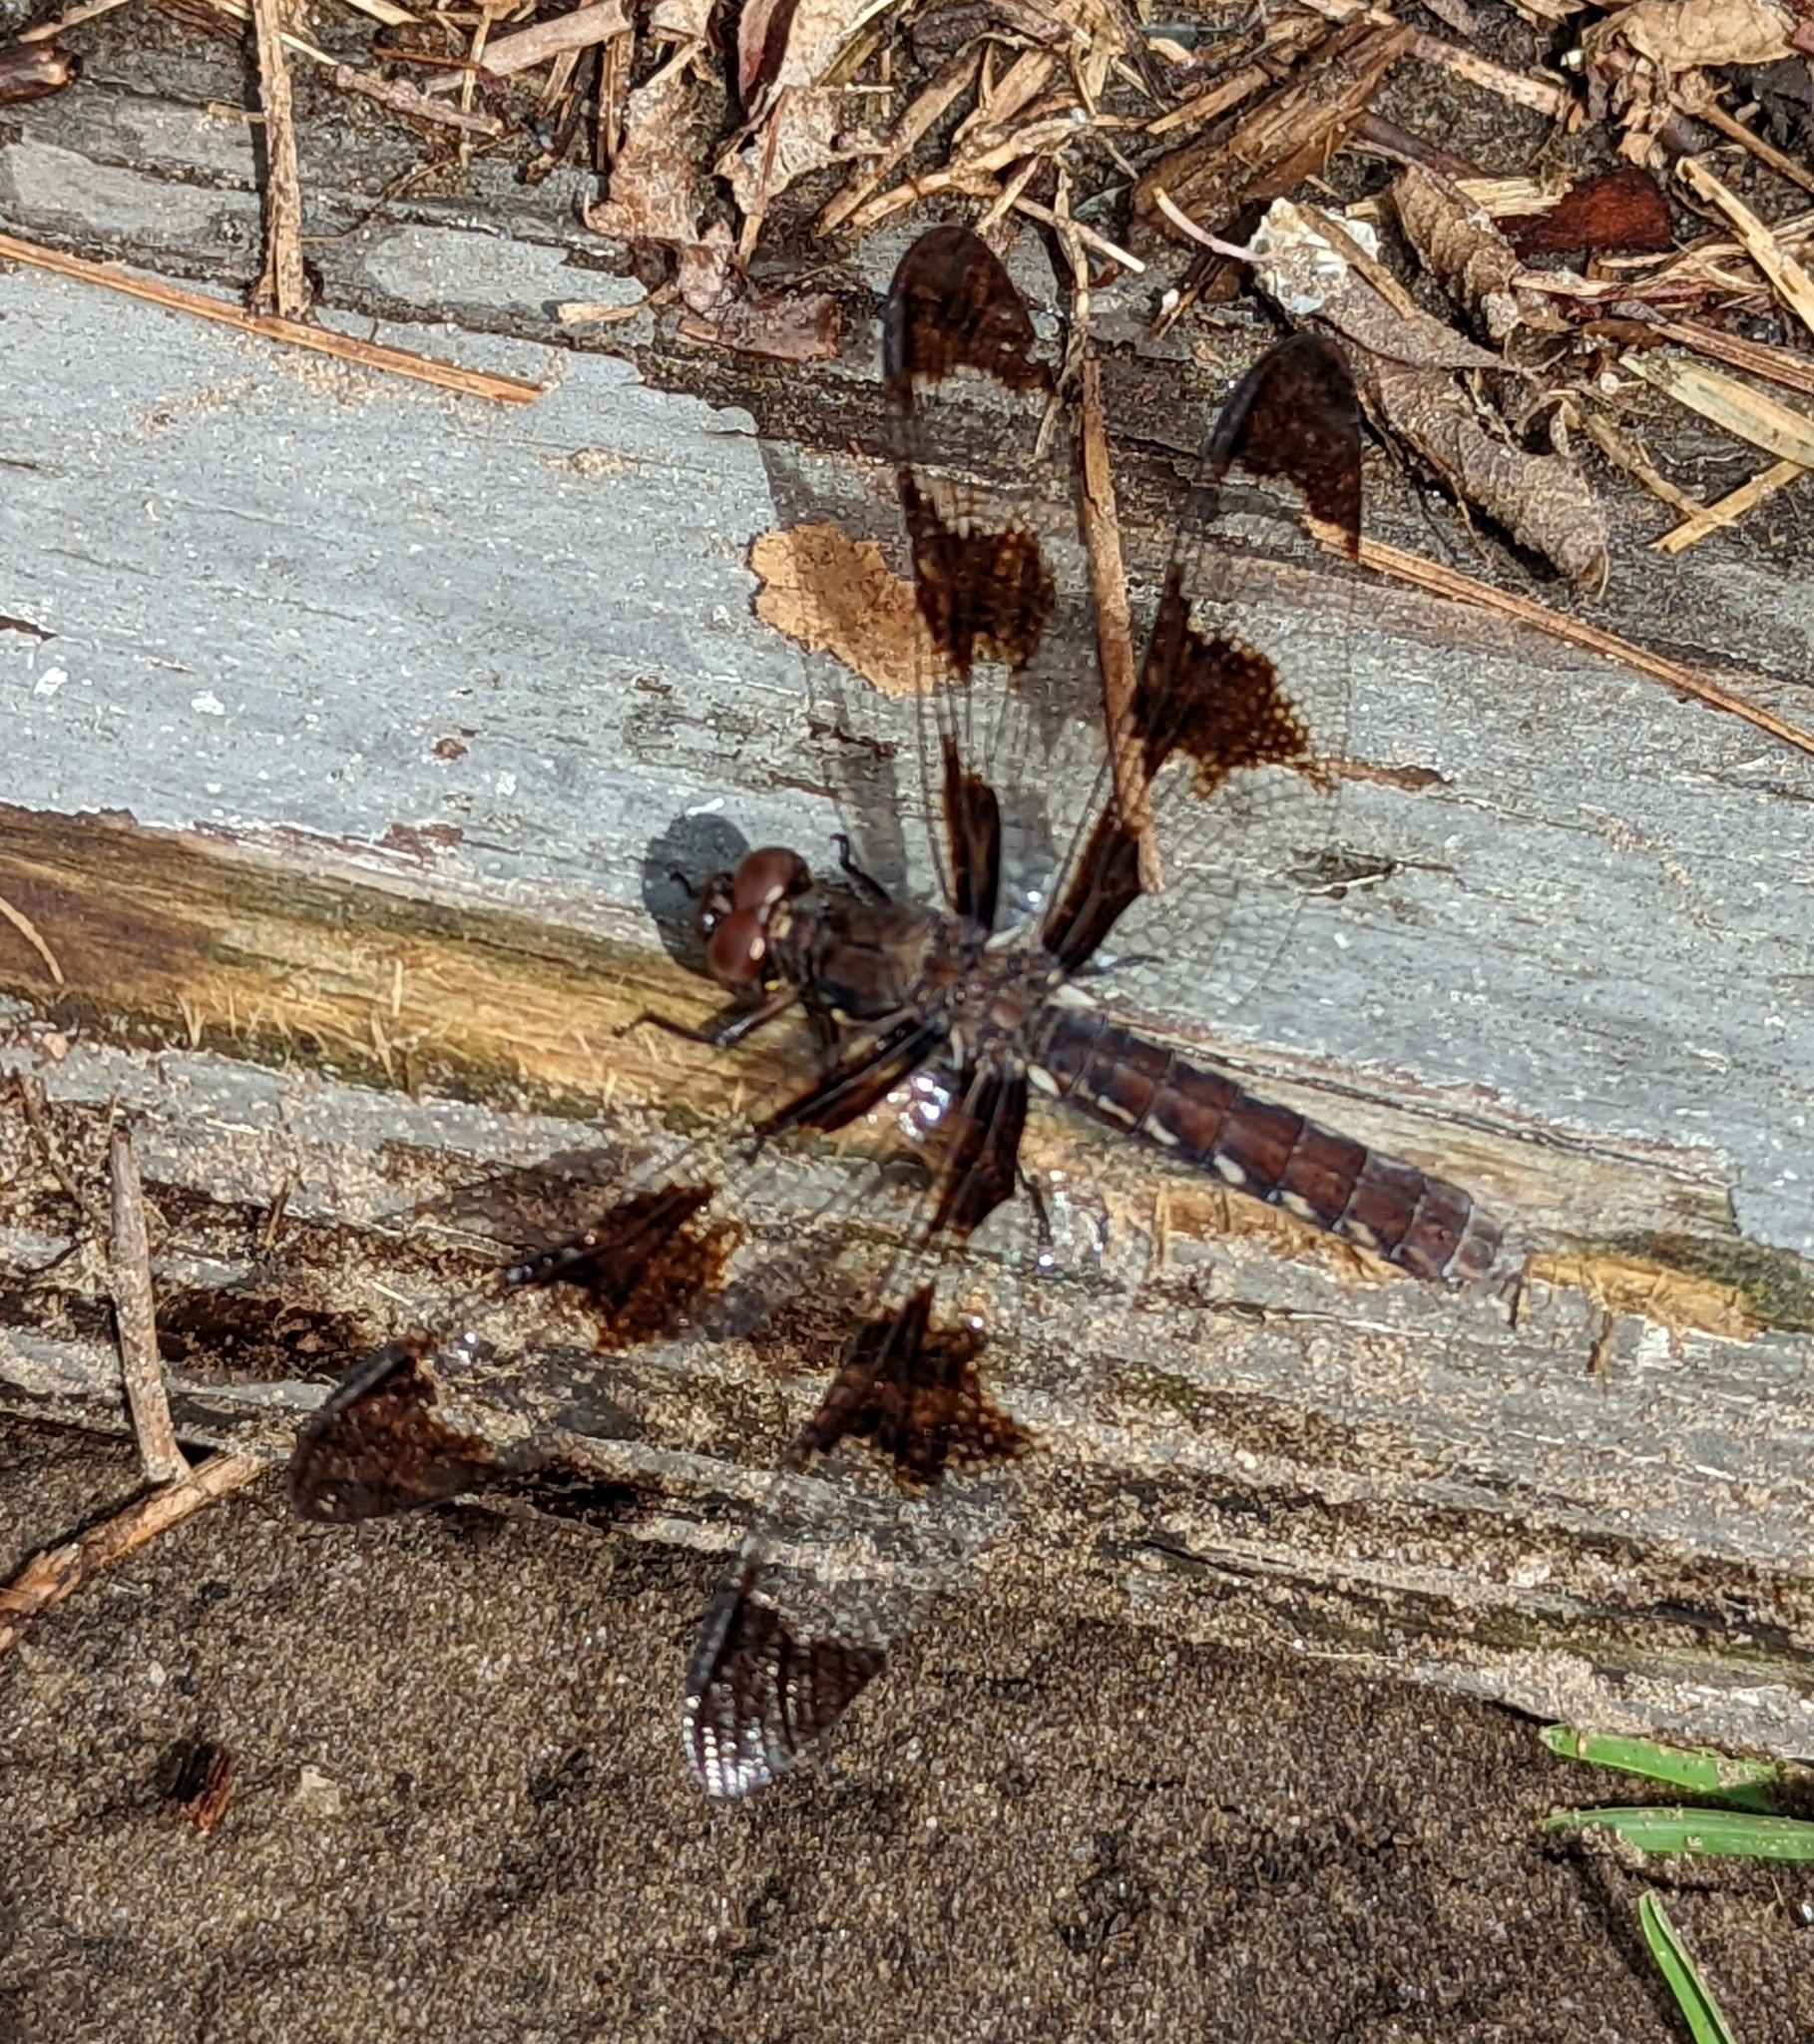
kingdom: Animalia
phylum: Arthropoda
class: Insecta
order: Odonata
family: Libellulidae
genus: Plathemis
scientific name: Plathemis lydia
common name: Common whitetail
